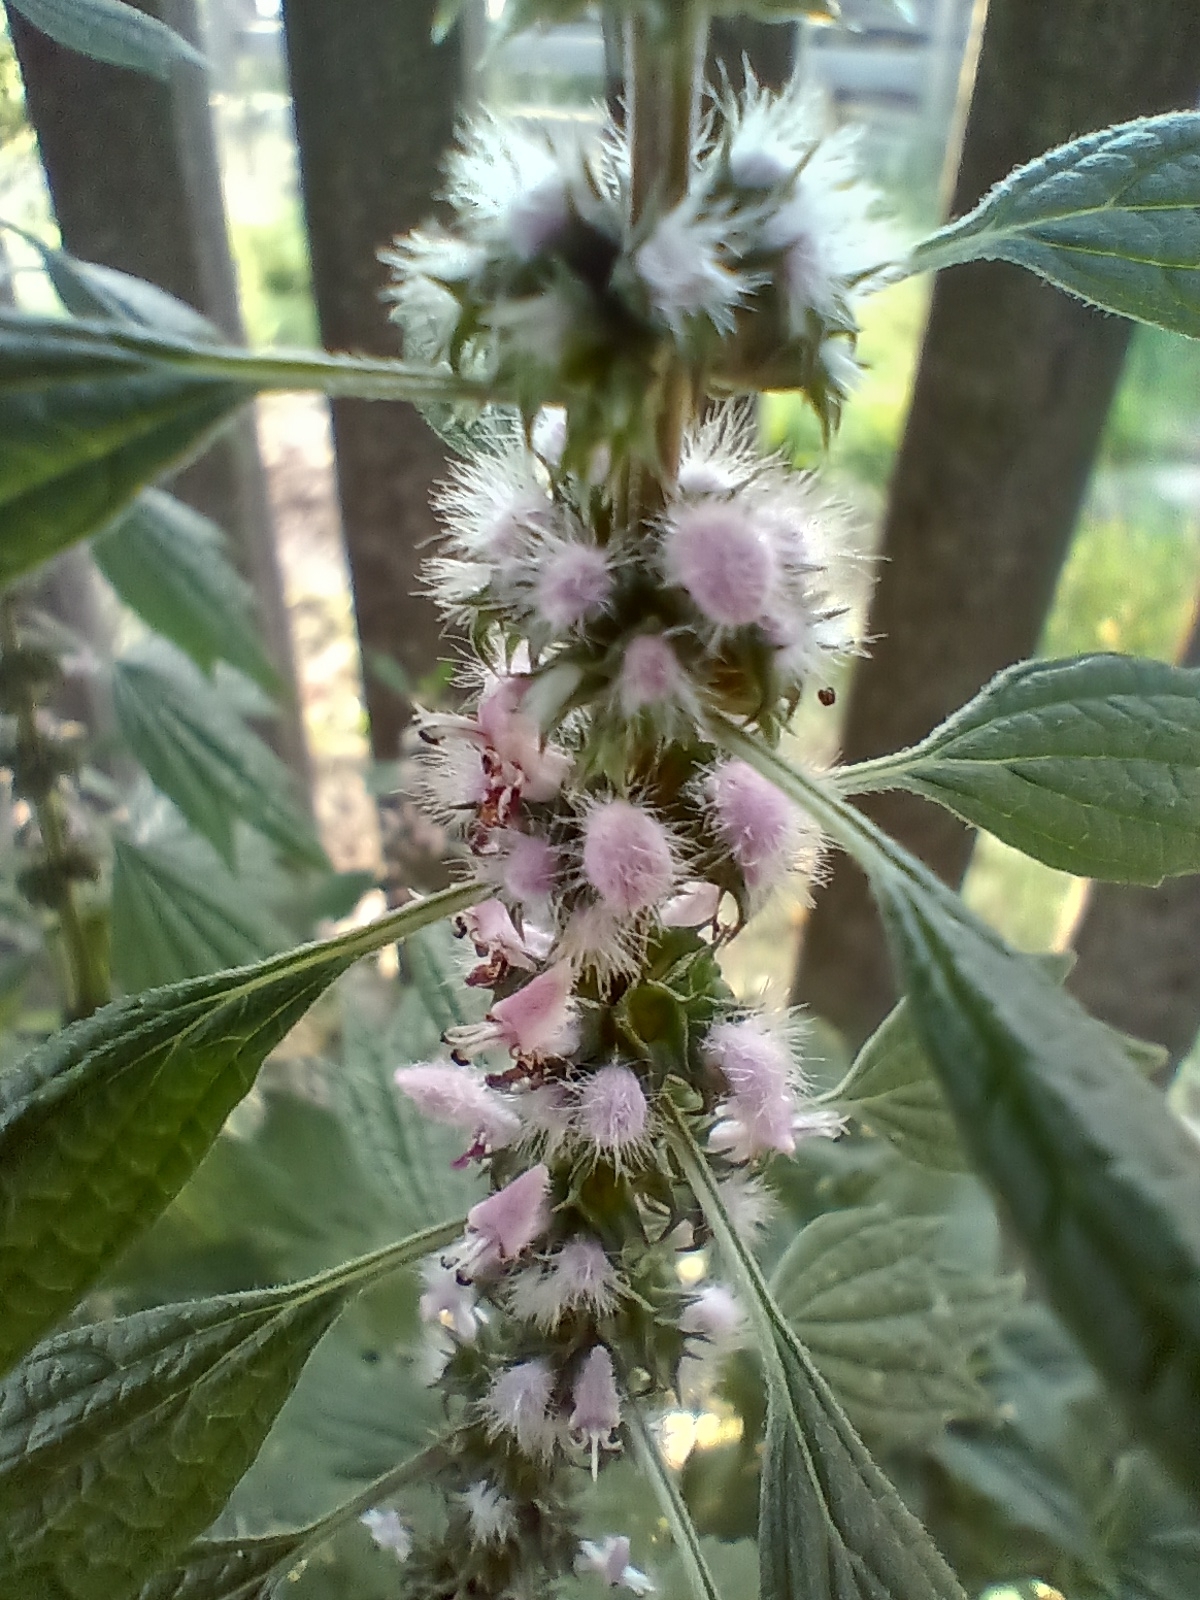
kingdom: Plantae
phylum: Tracheophyta
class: Magnoliopsida
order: Lamiales
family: Lamiaceae
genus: Leonurus
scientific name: Leonurus cardiaca
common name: Motherwort
